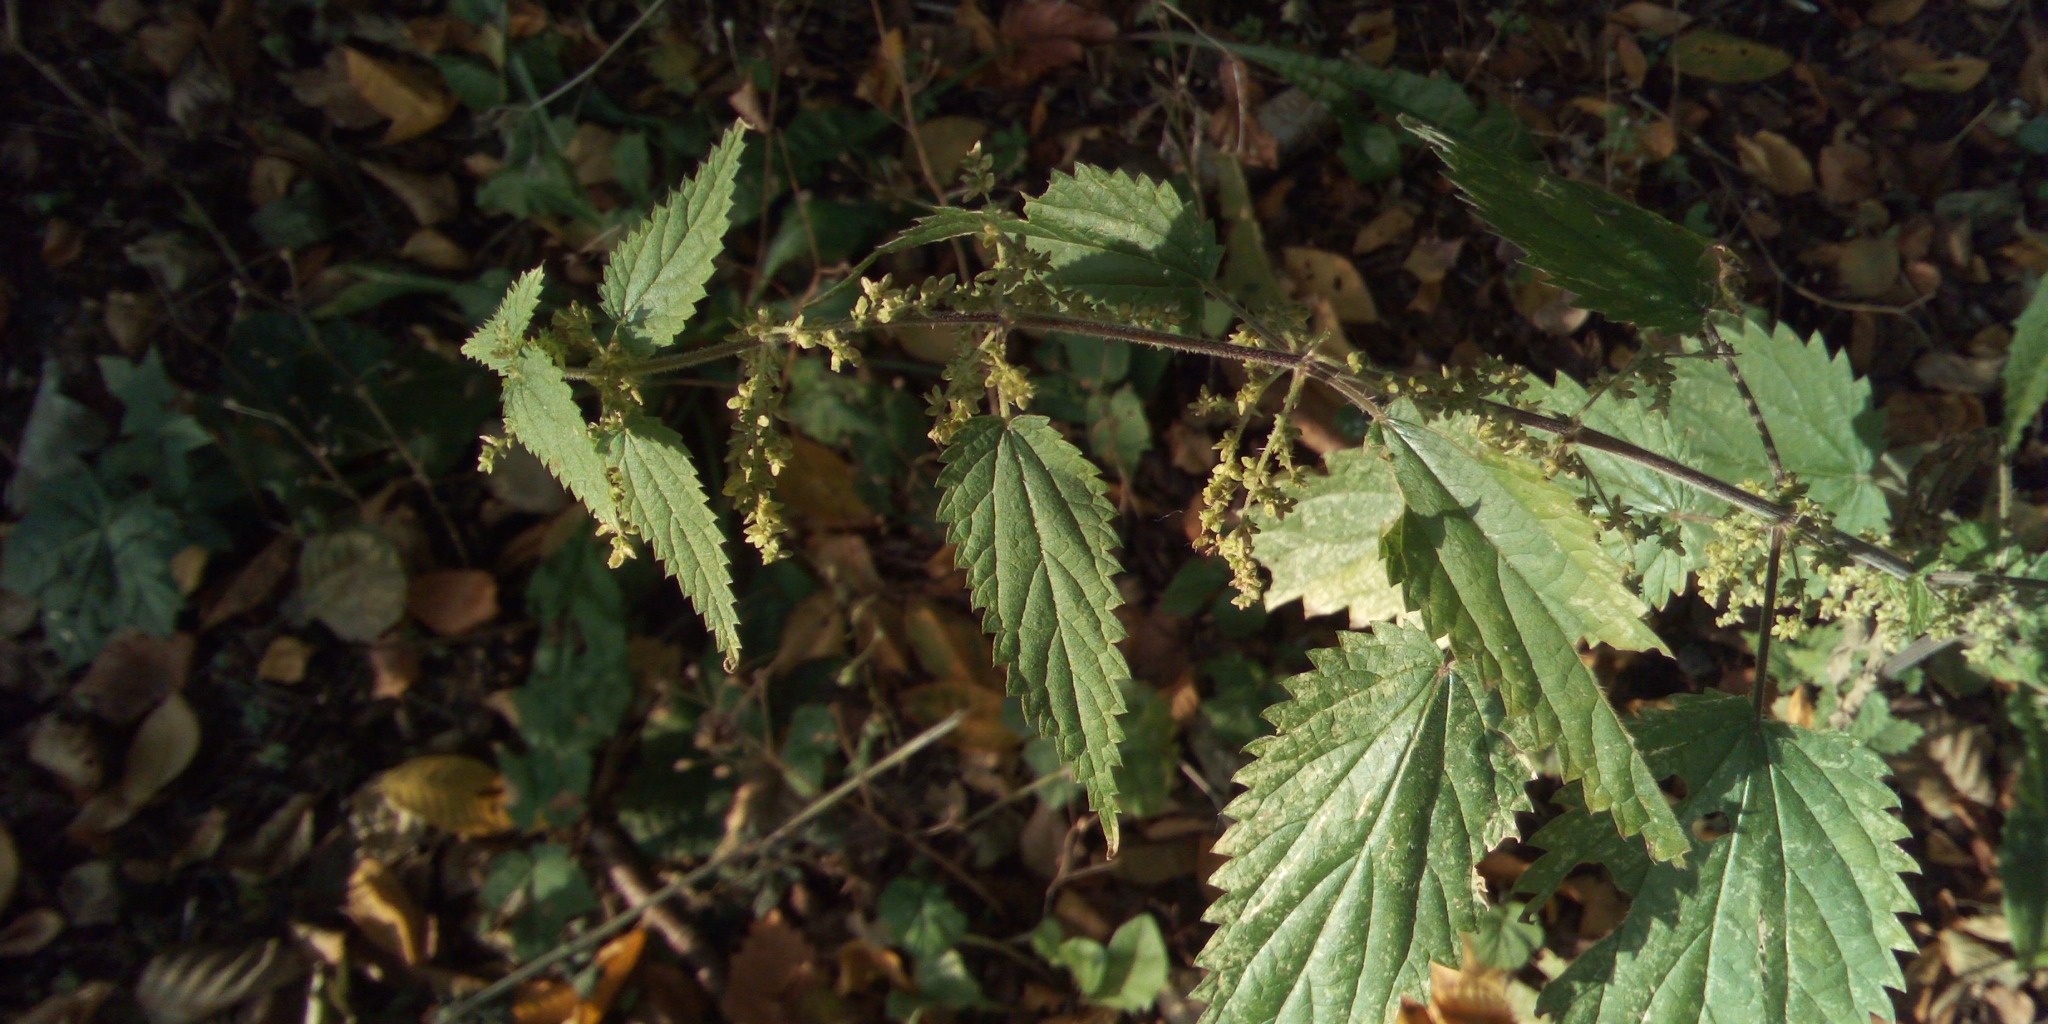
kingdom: Plantae
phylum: Tracheophyta
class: Magnoliopsida
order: Rosales
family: Urticaceae
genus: Urtica
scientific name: Urtica dioica
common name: Common nettle
